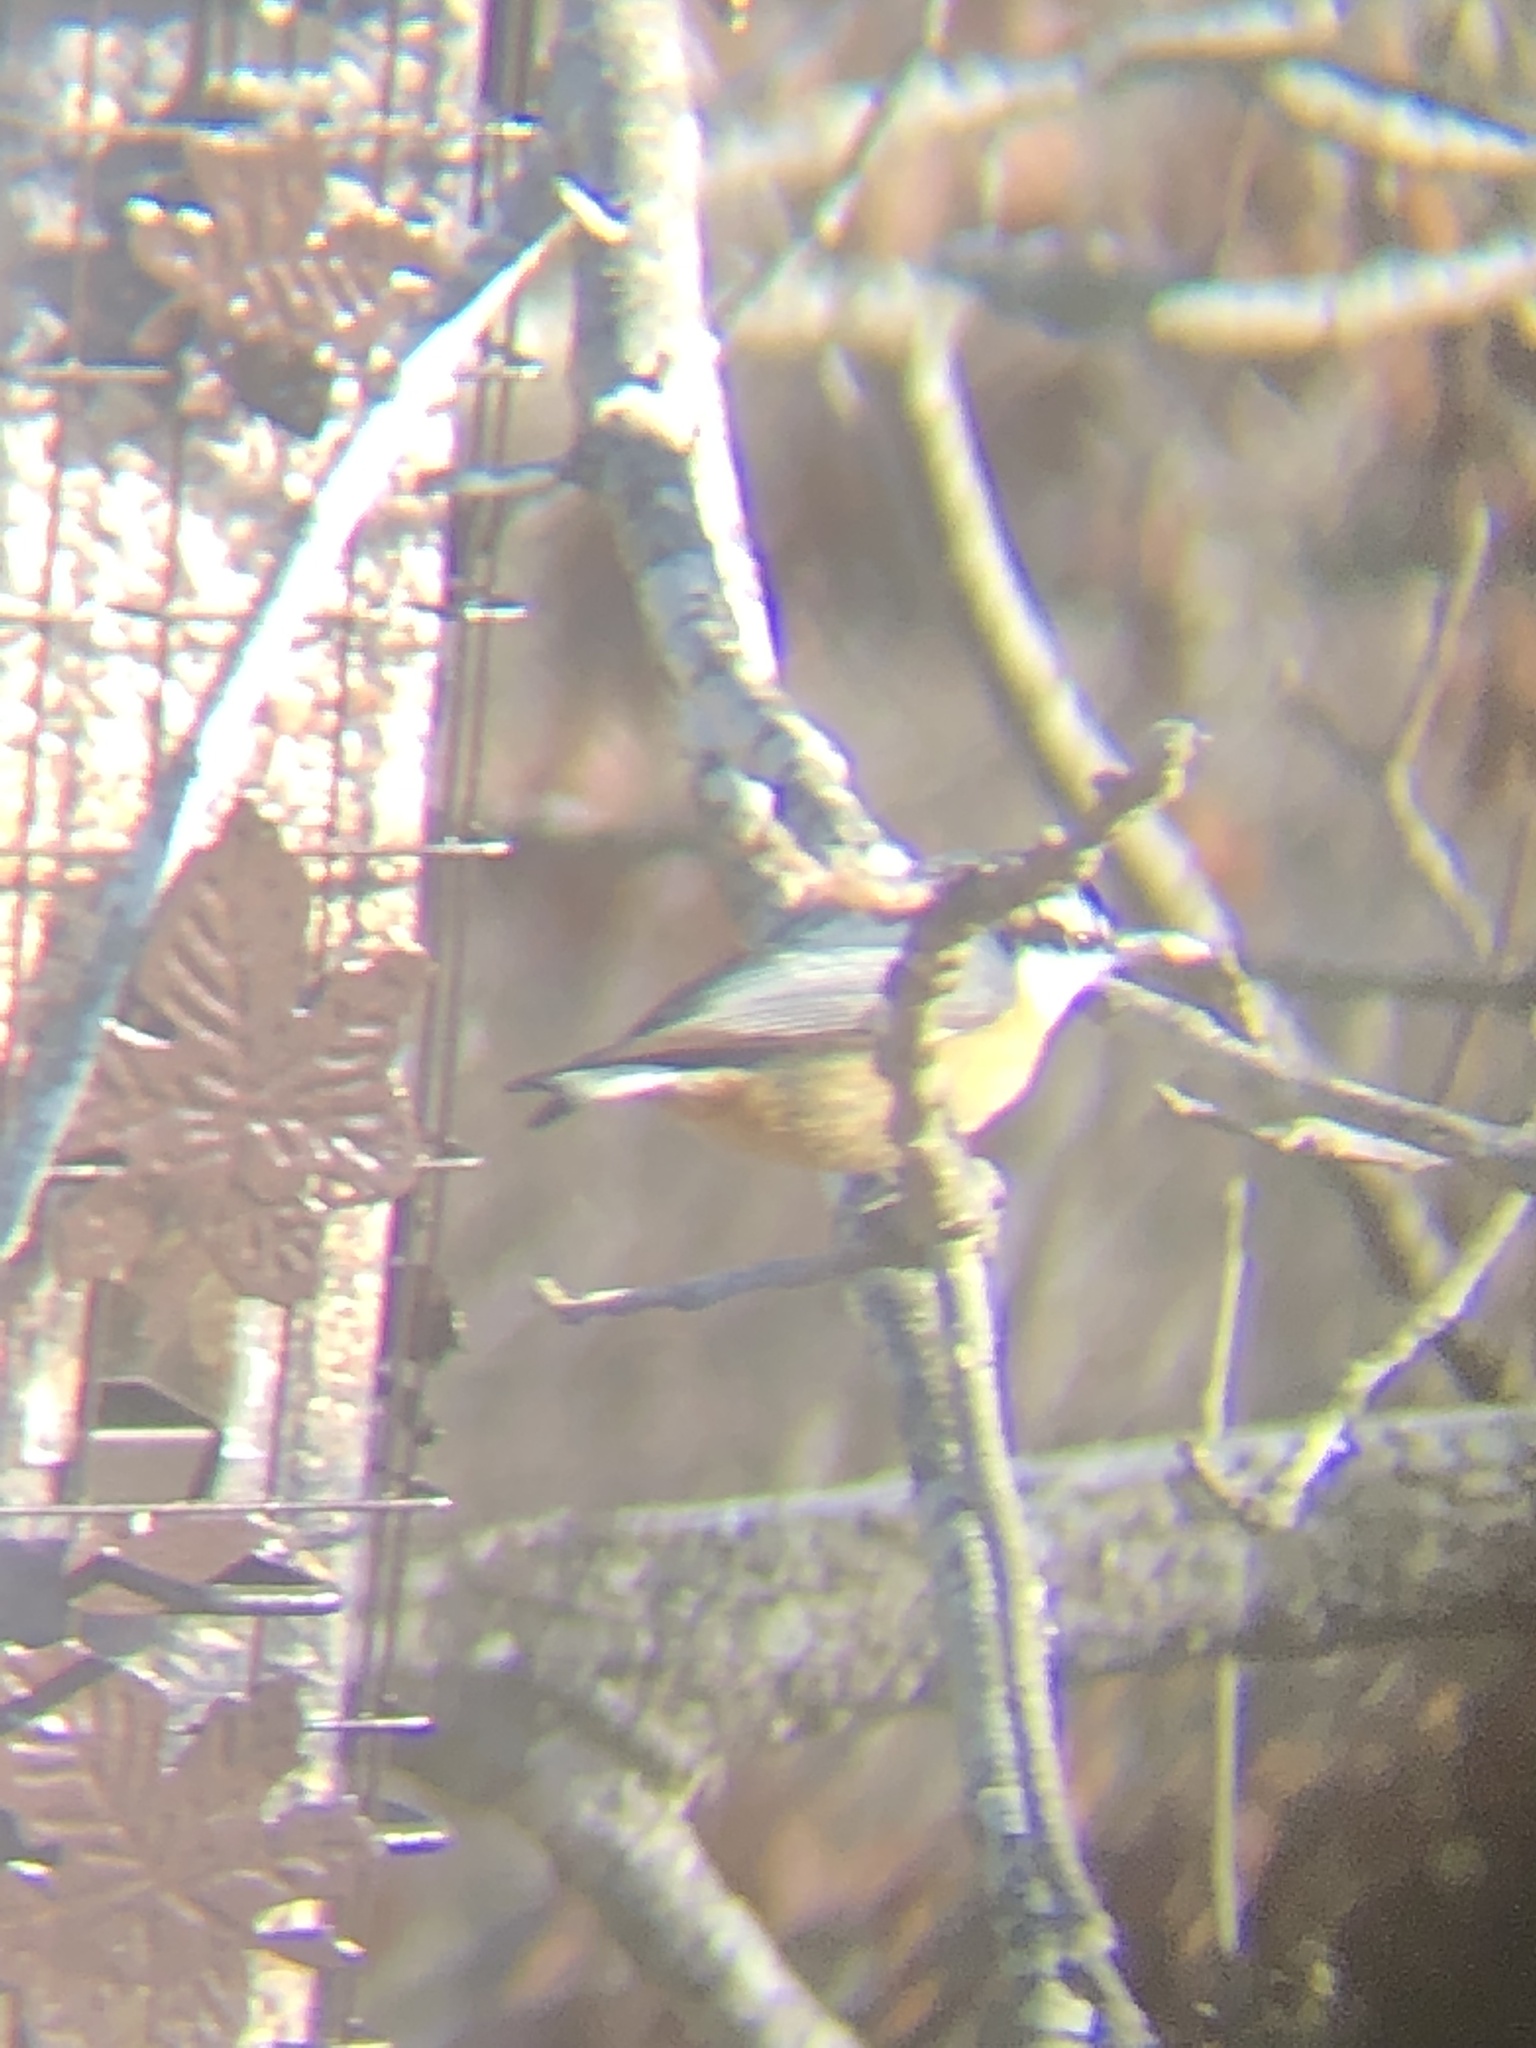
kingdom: Animalia
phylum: Chordata
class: Aves
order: Passeriformes
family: Sittidae
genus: Sitta
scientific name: Sitta canadensis
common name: Red-breasted nuthatch
